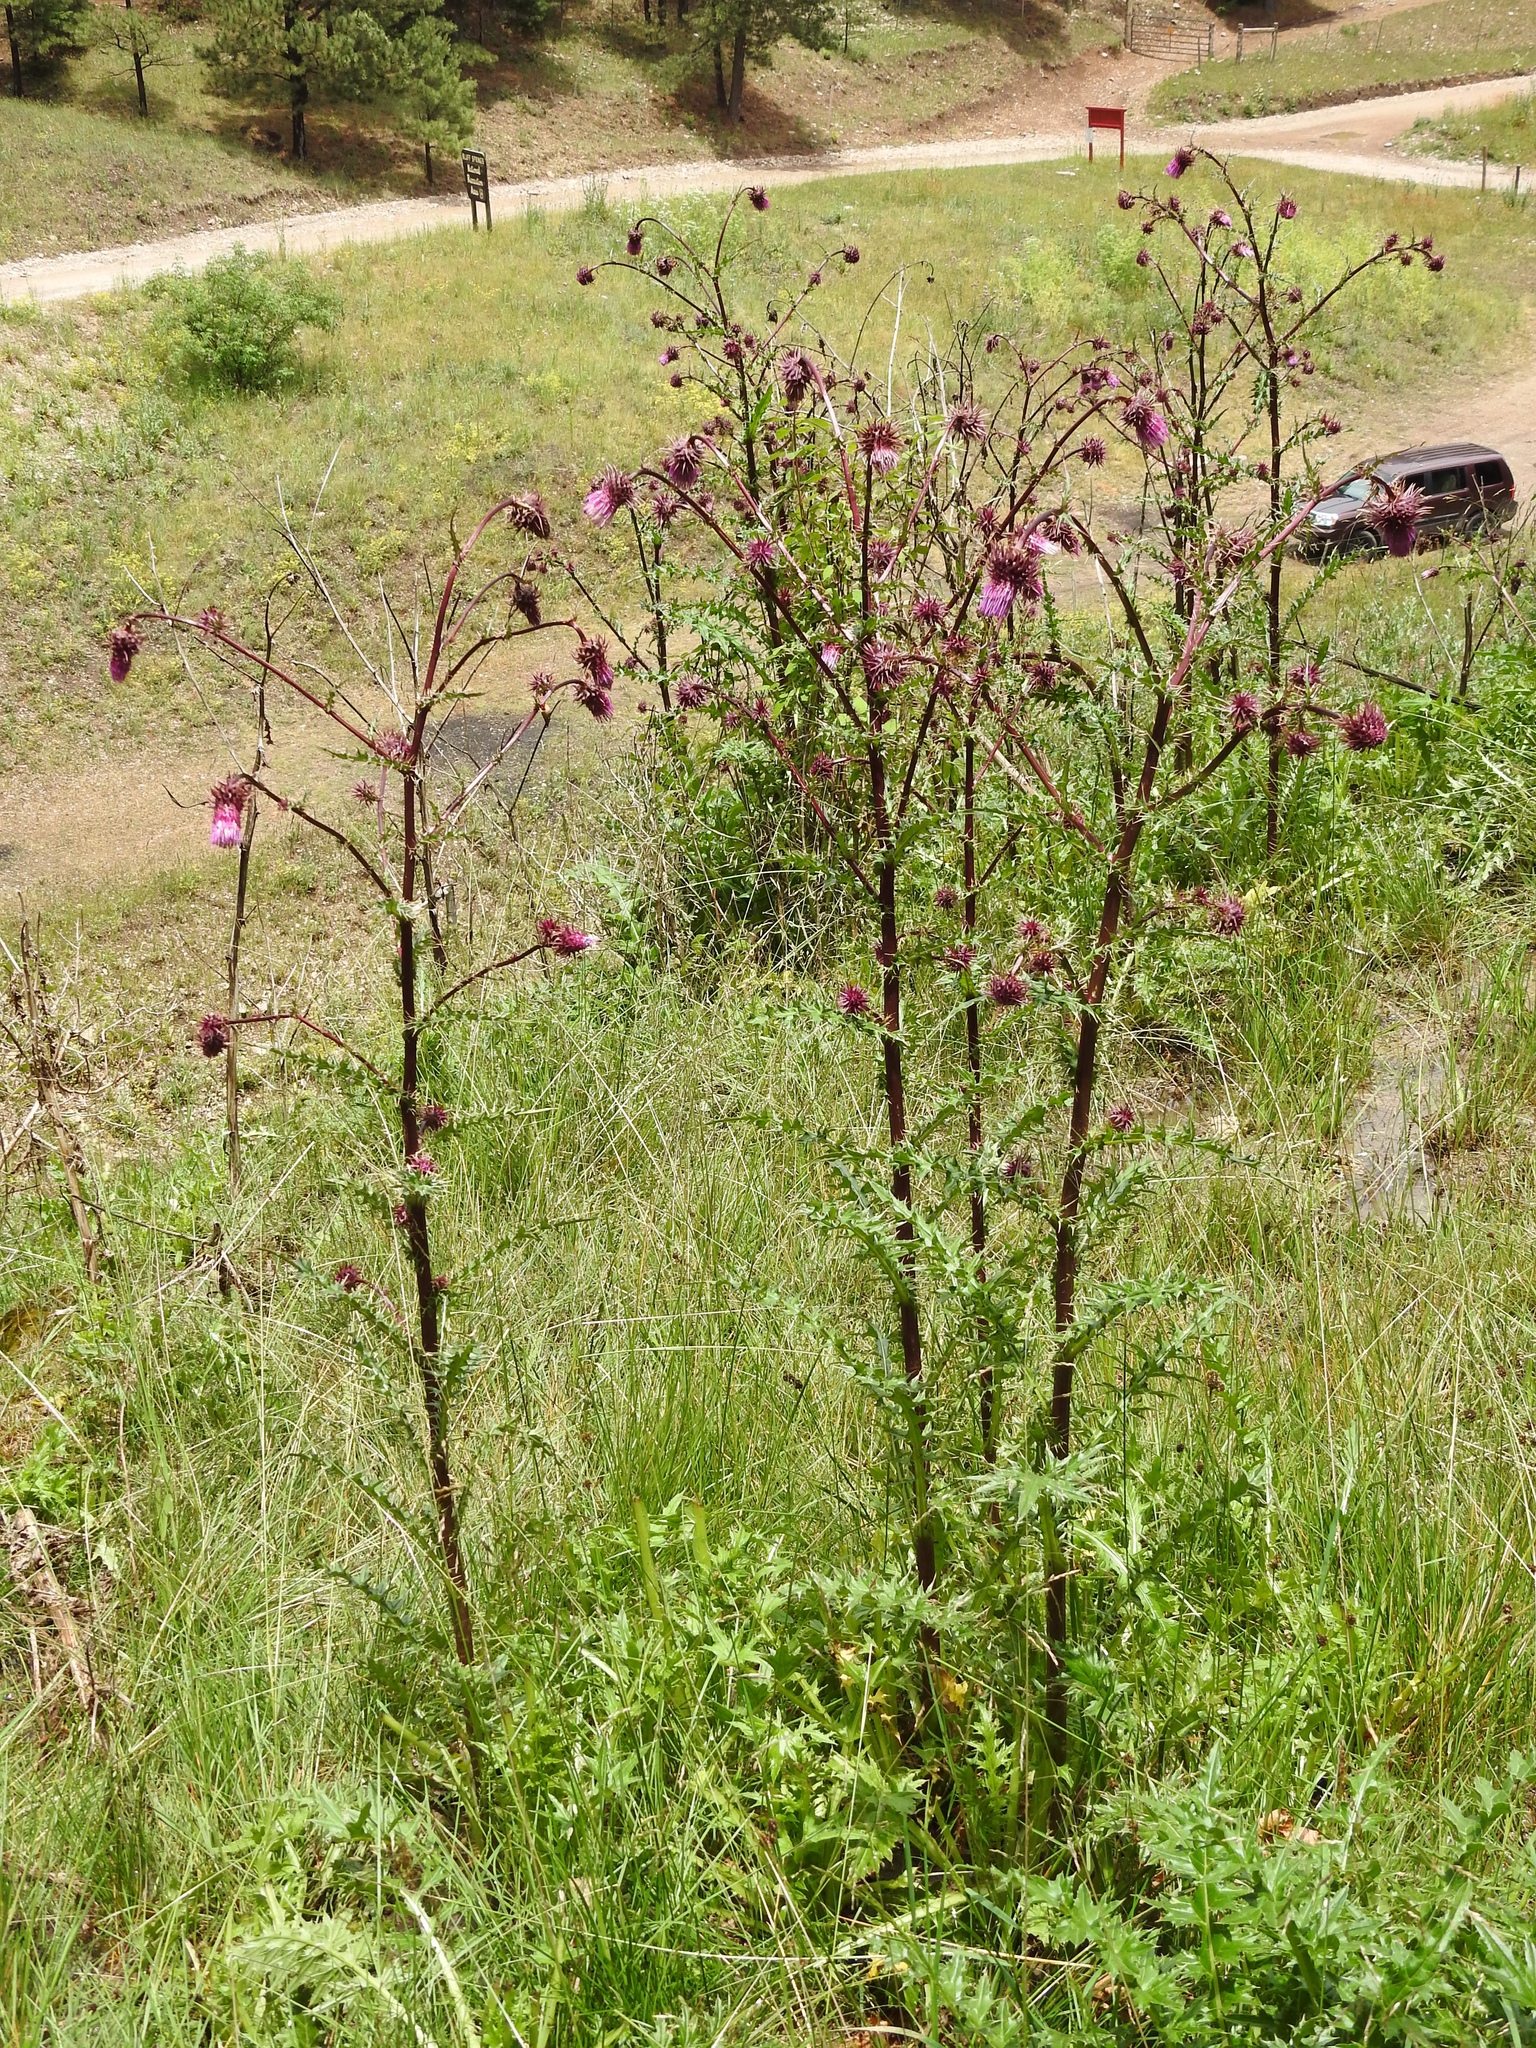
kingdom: Plantae
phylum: Tracheophyta
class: Magnoliopsida
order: Asterales
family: Asteraceae
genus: Cirsium
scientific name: Cirsium vinaceum
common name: Sacramento mountain thistle
